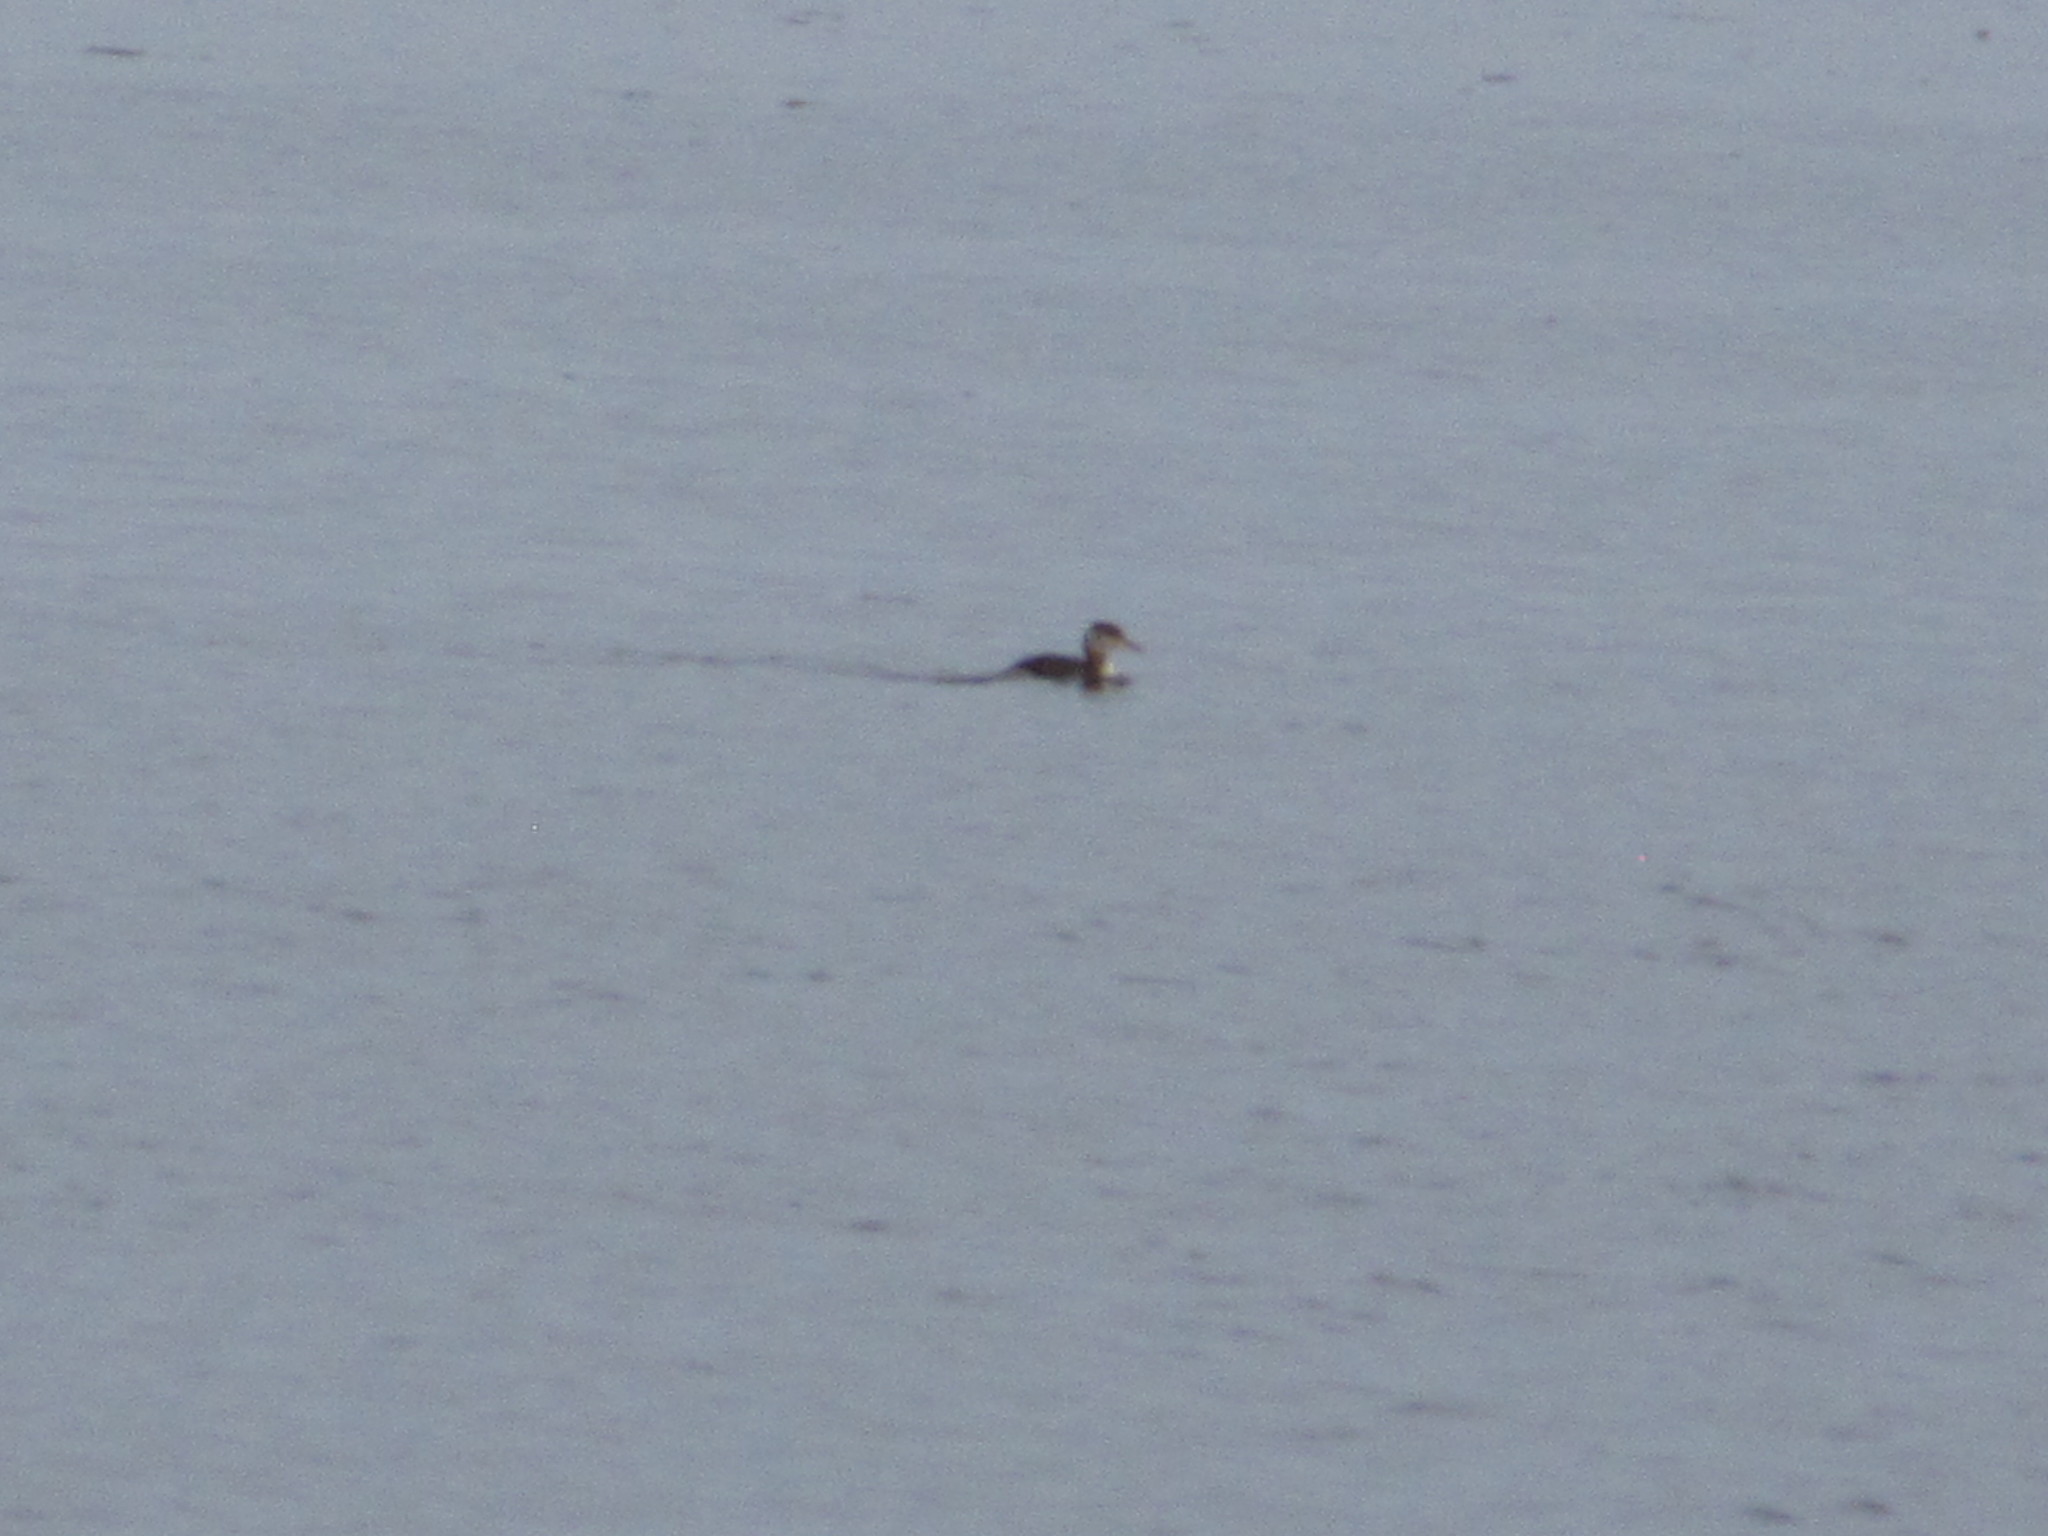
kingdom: Animalia
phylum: Chordata
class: Aves
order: Podicipediformes
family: Podicipedidae
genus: Podiceps
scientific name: Podiceps grisegena
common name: Red-necked grebe
